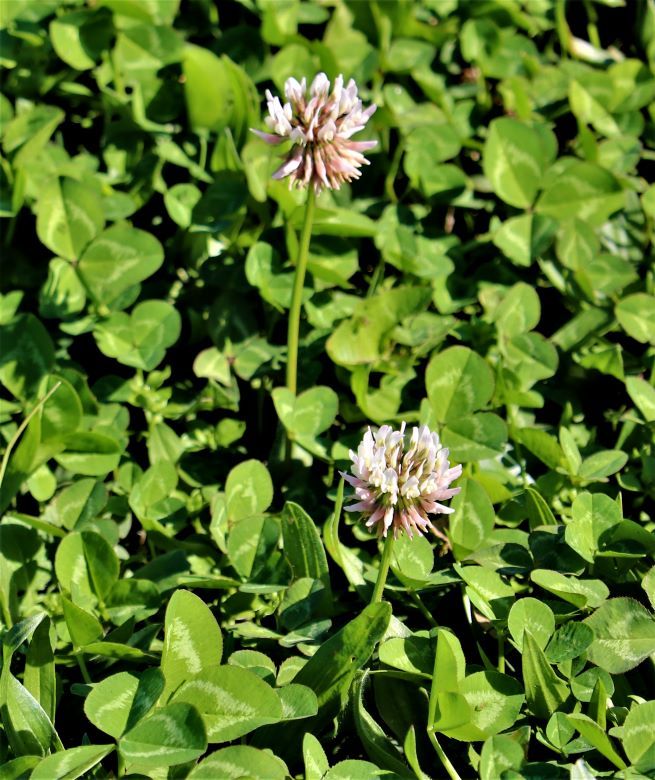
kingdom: Plantae
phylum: Tracheophyta
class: Magnoliopsida
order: Fabales
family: Fabaceae
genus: Trifolium
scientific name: Trifolium repens
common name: White clover
